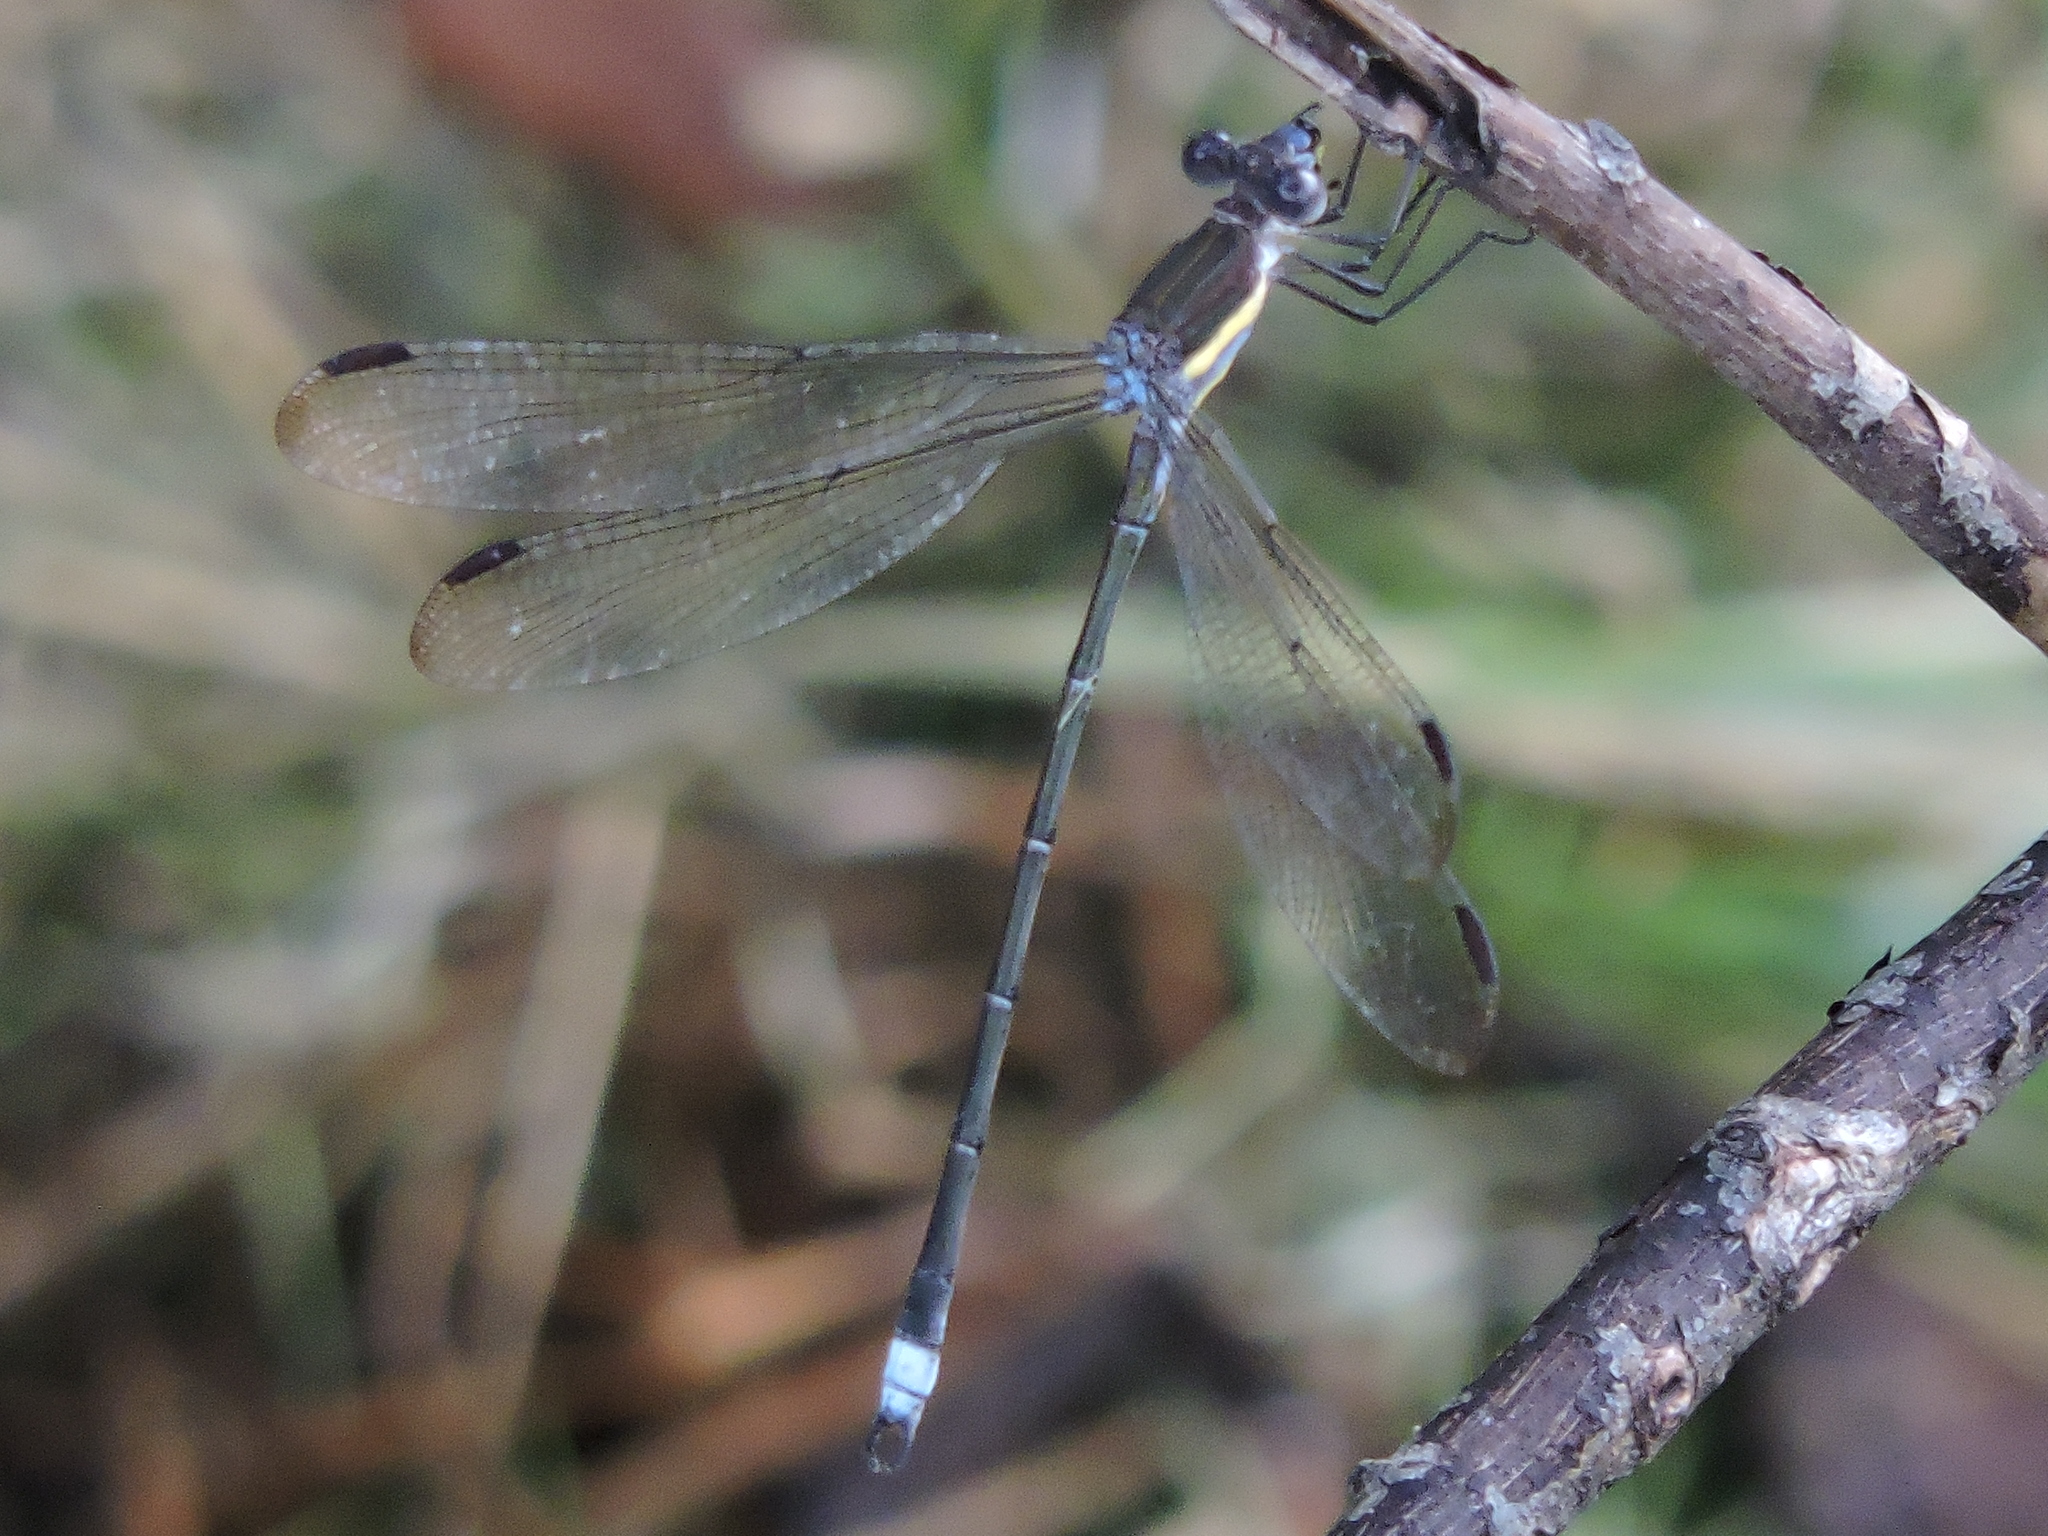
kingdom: Animalia
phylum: Arthropoda
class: Insecta
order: Odonata
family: Lestidae
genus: Archilestes
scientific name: Archilestes grandis
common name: Great spreadwing
